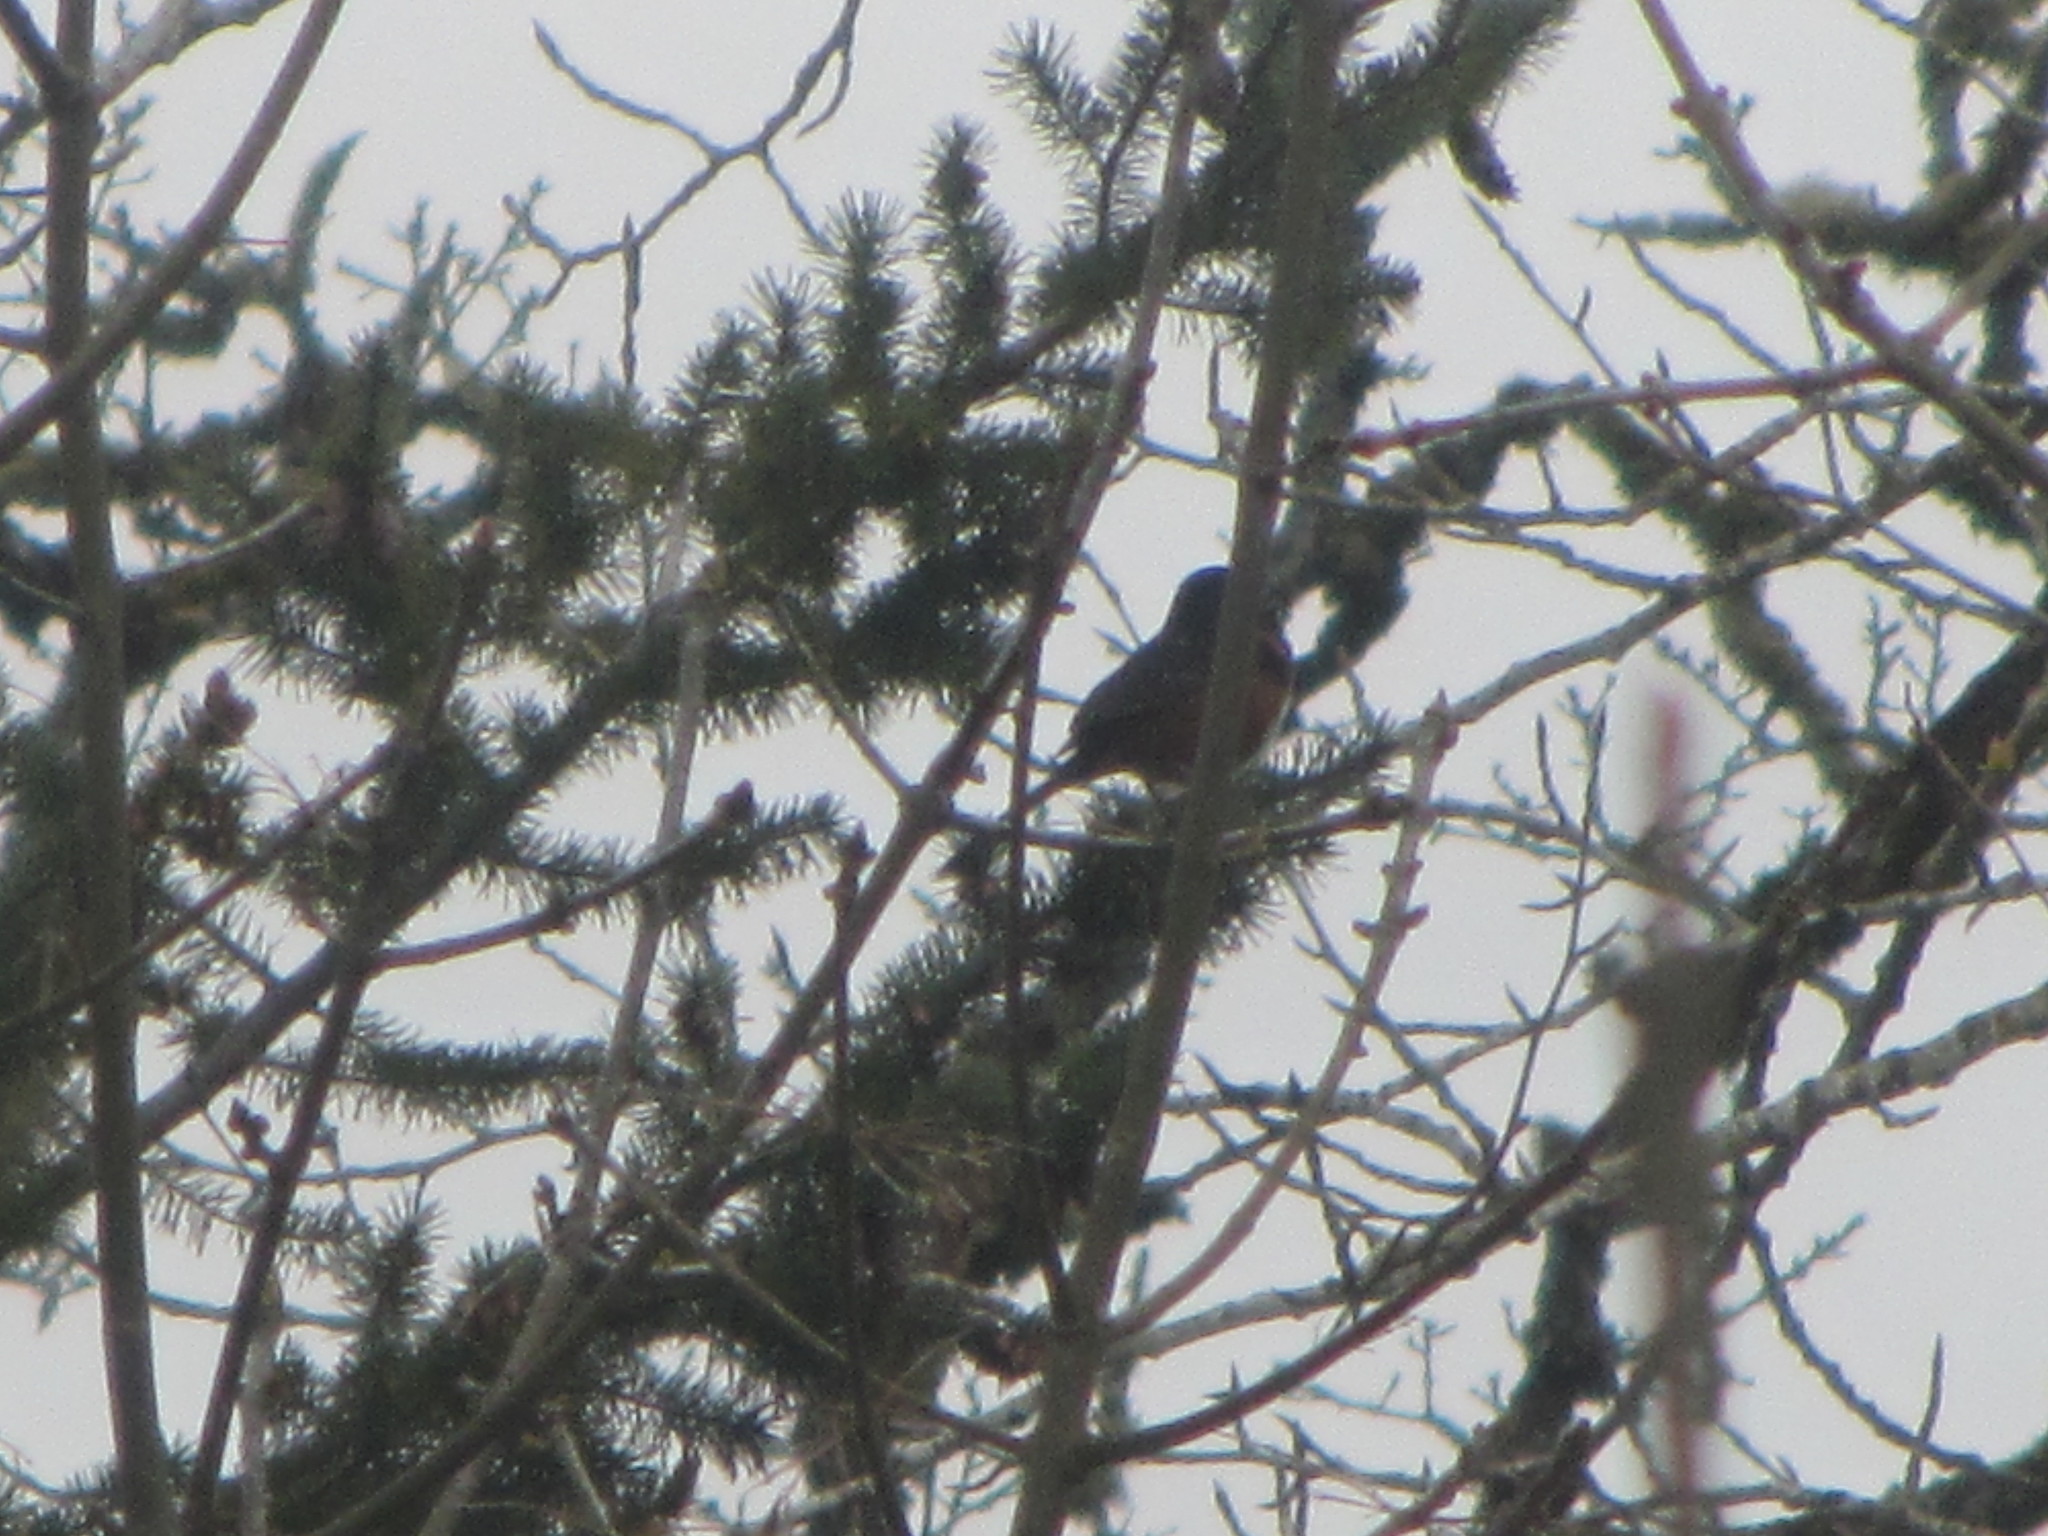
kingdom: Animalia
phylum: Chordata
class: Aves
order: Passeriformes
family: Passerellidae
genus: Pipilo
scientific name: Pipilo maculatus
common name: Spotted towhee
